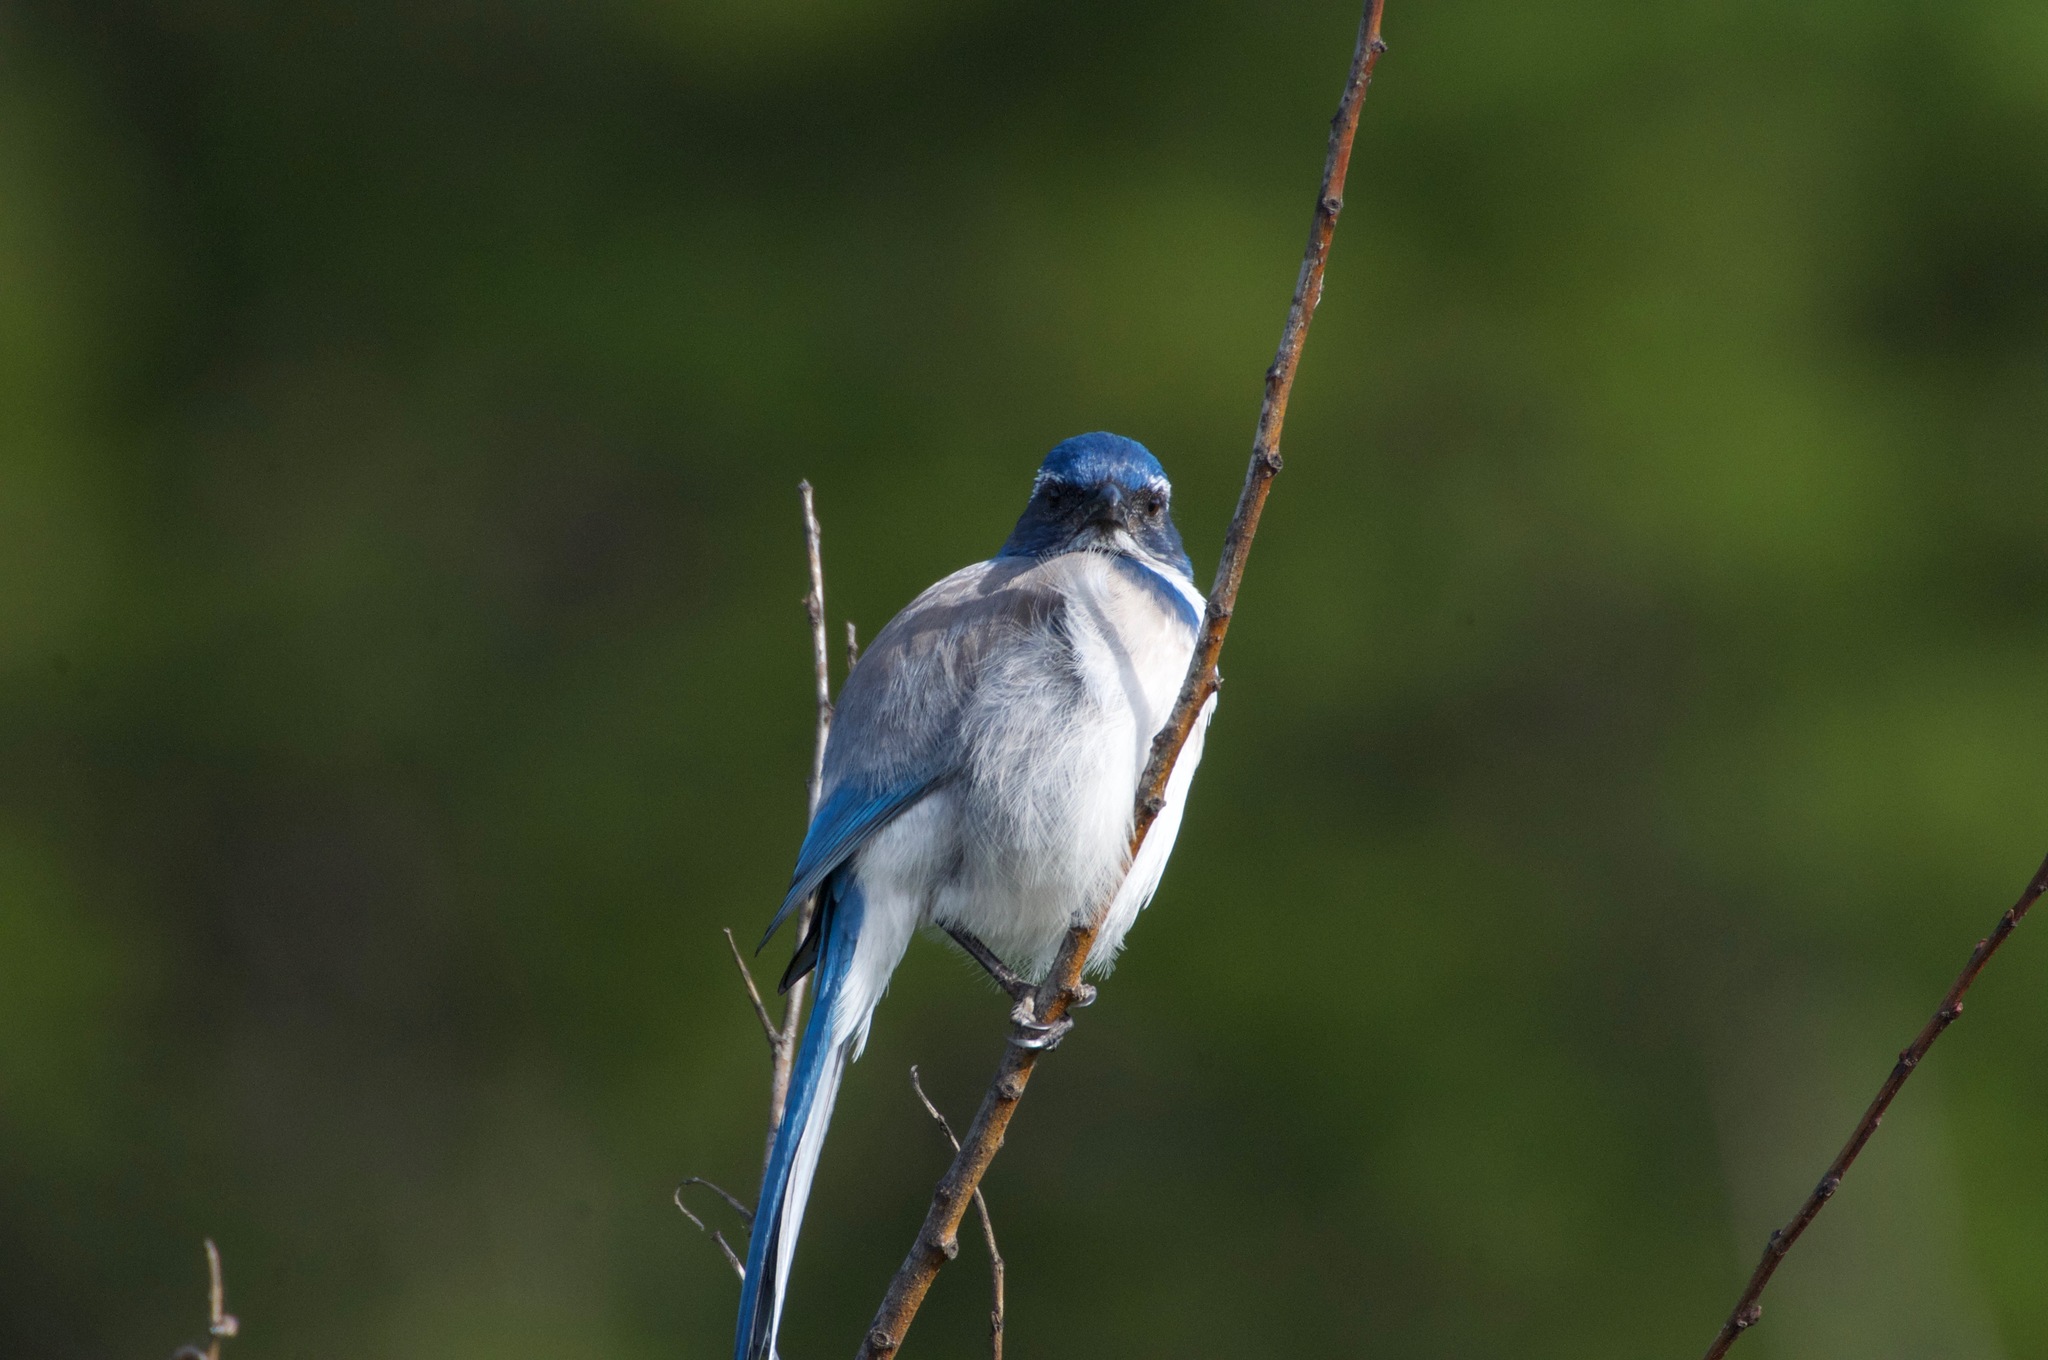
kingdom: Animalia
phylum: Chordata
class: Aves
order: Passeriformes
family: Corvidae
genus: Aphelocoma
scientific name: Aphelocoma californica
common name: California scrub-jay
